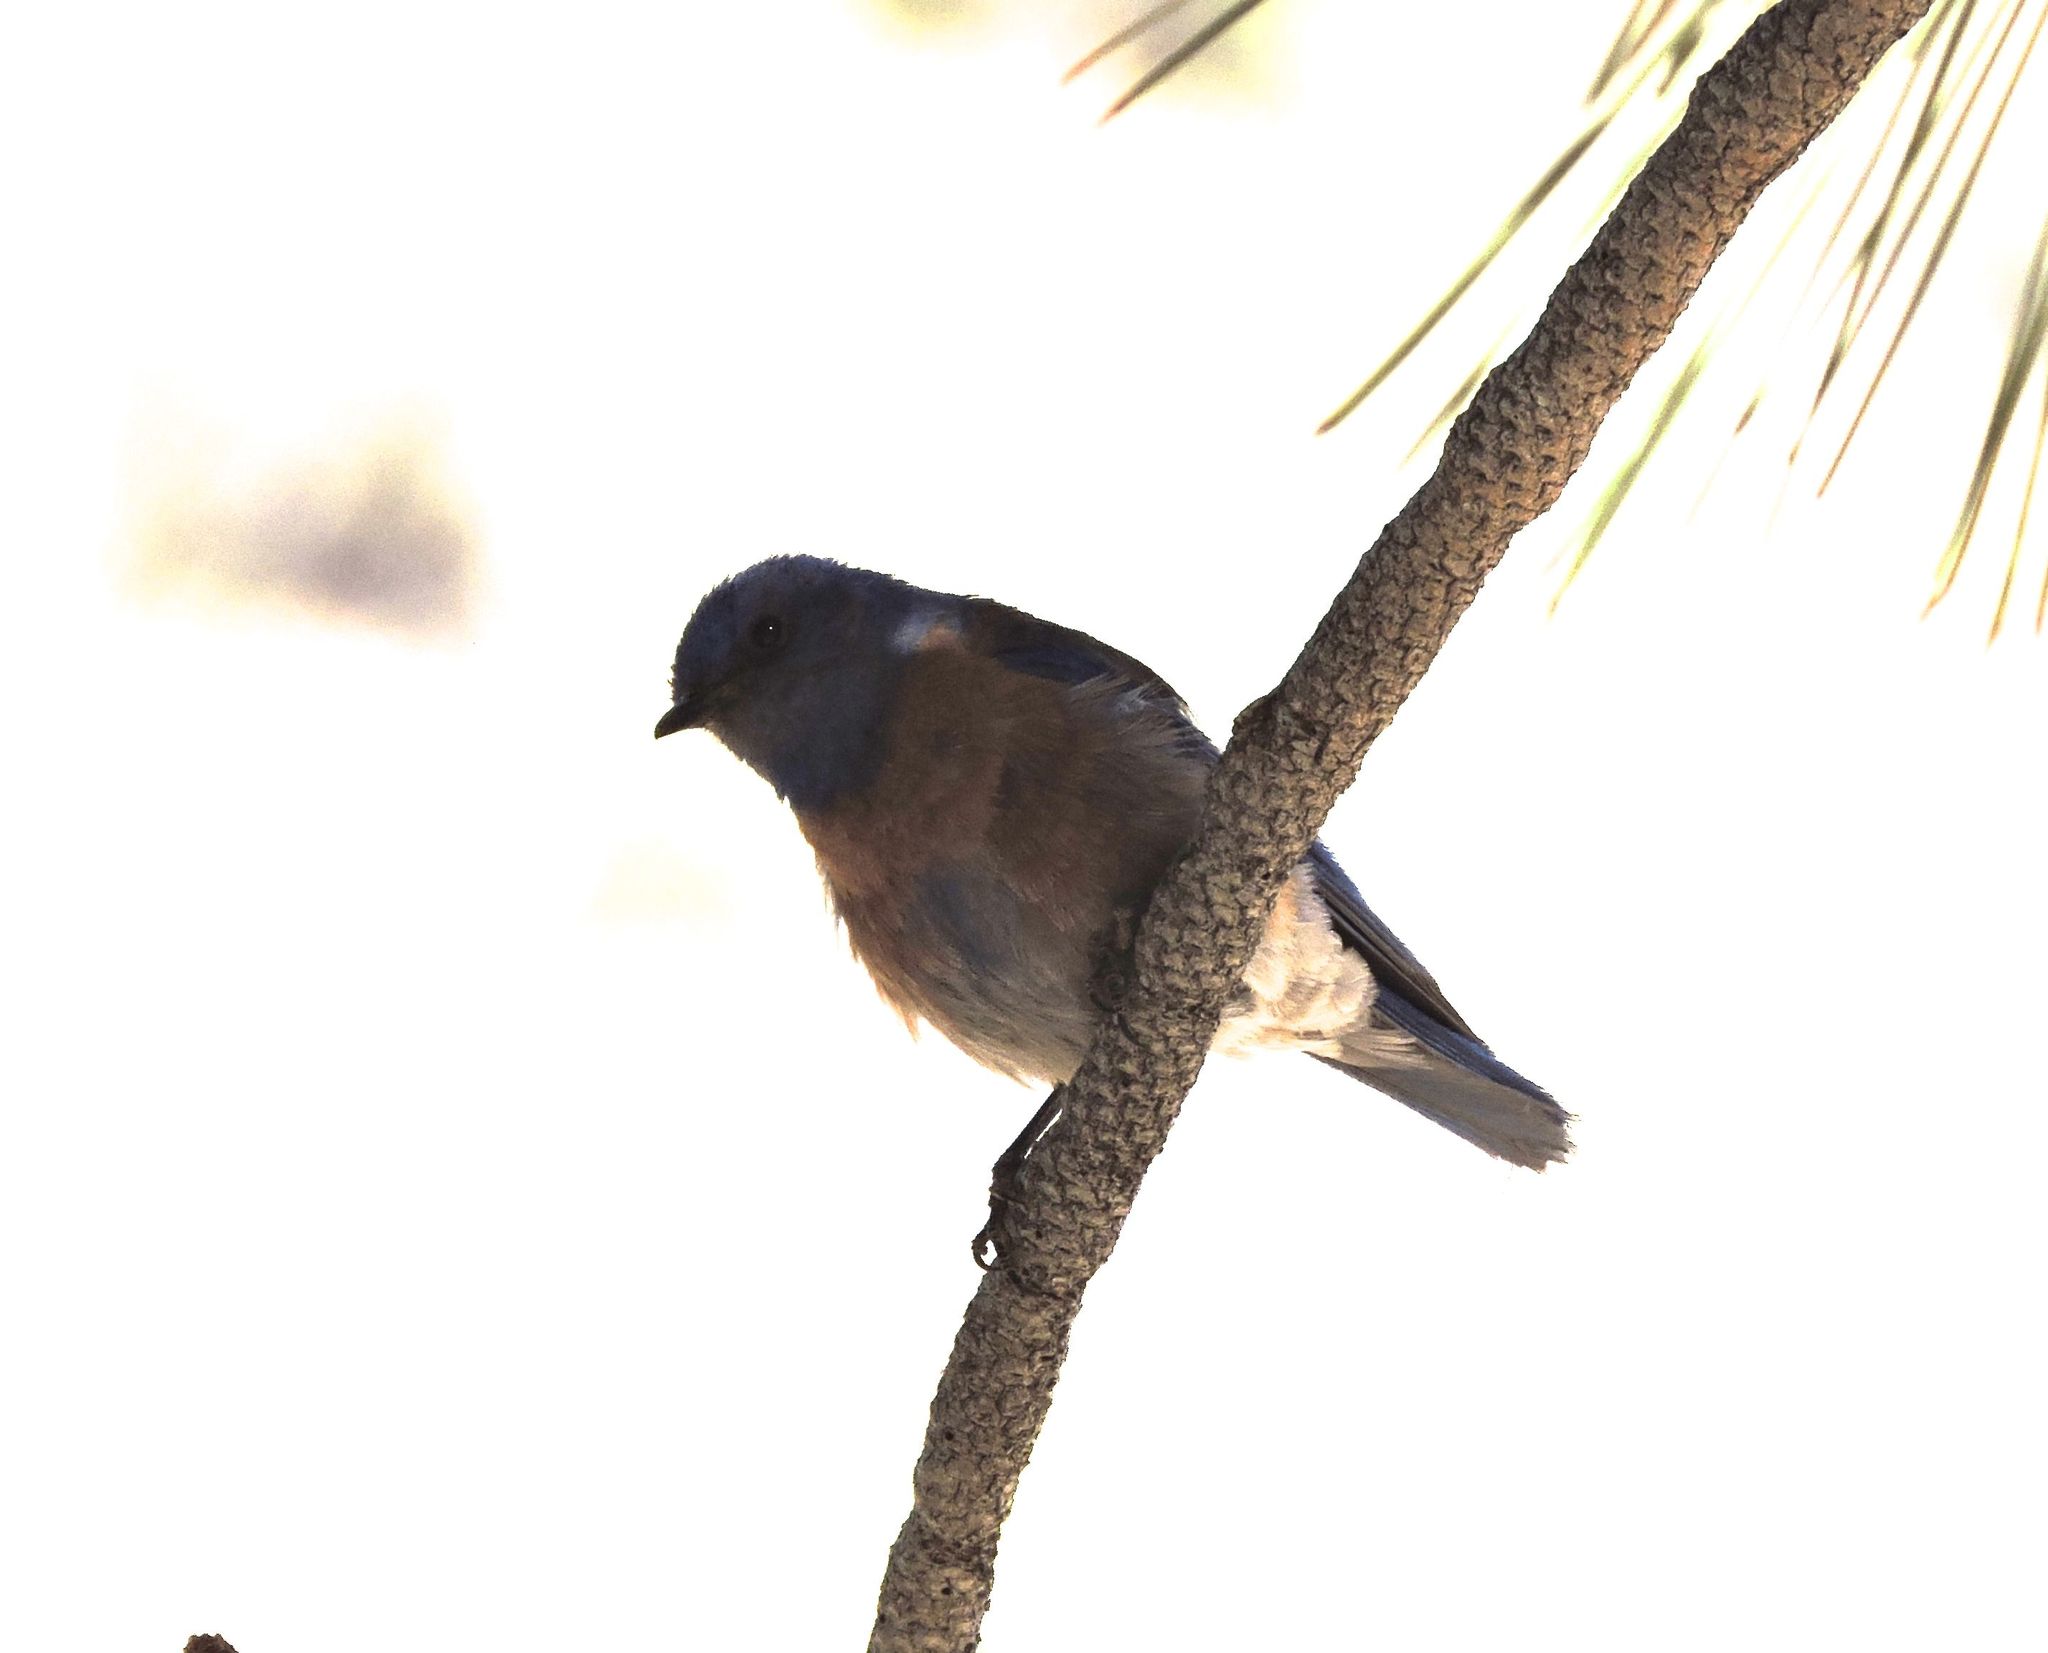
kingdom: Animalia
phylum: Chordata
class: Aves
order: Passeriformes
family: Turdidae
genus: Sialia
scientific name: Sialia mexicana
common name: Western bluebird
